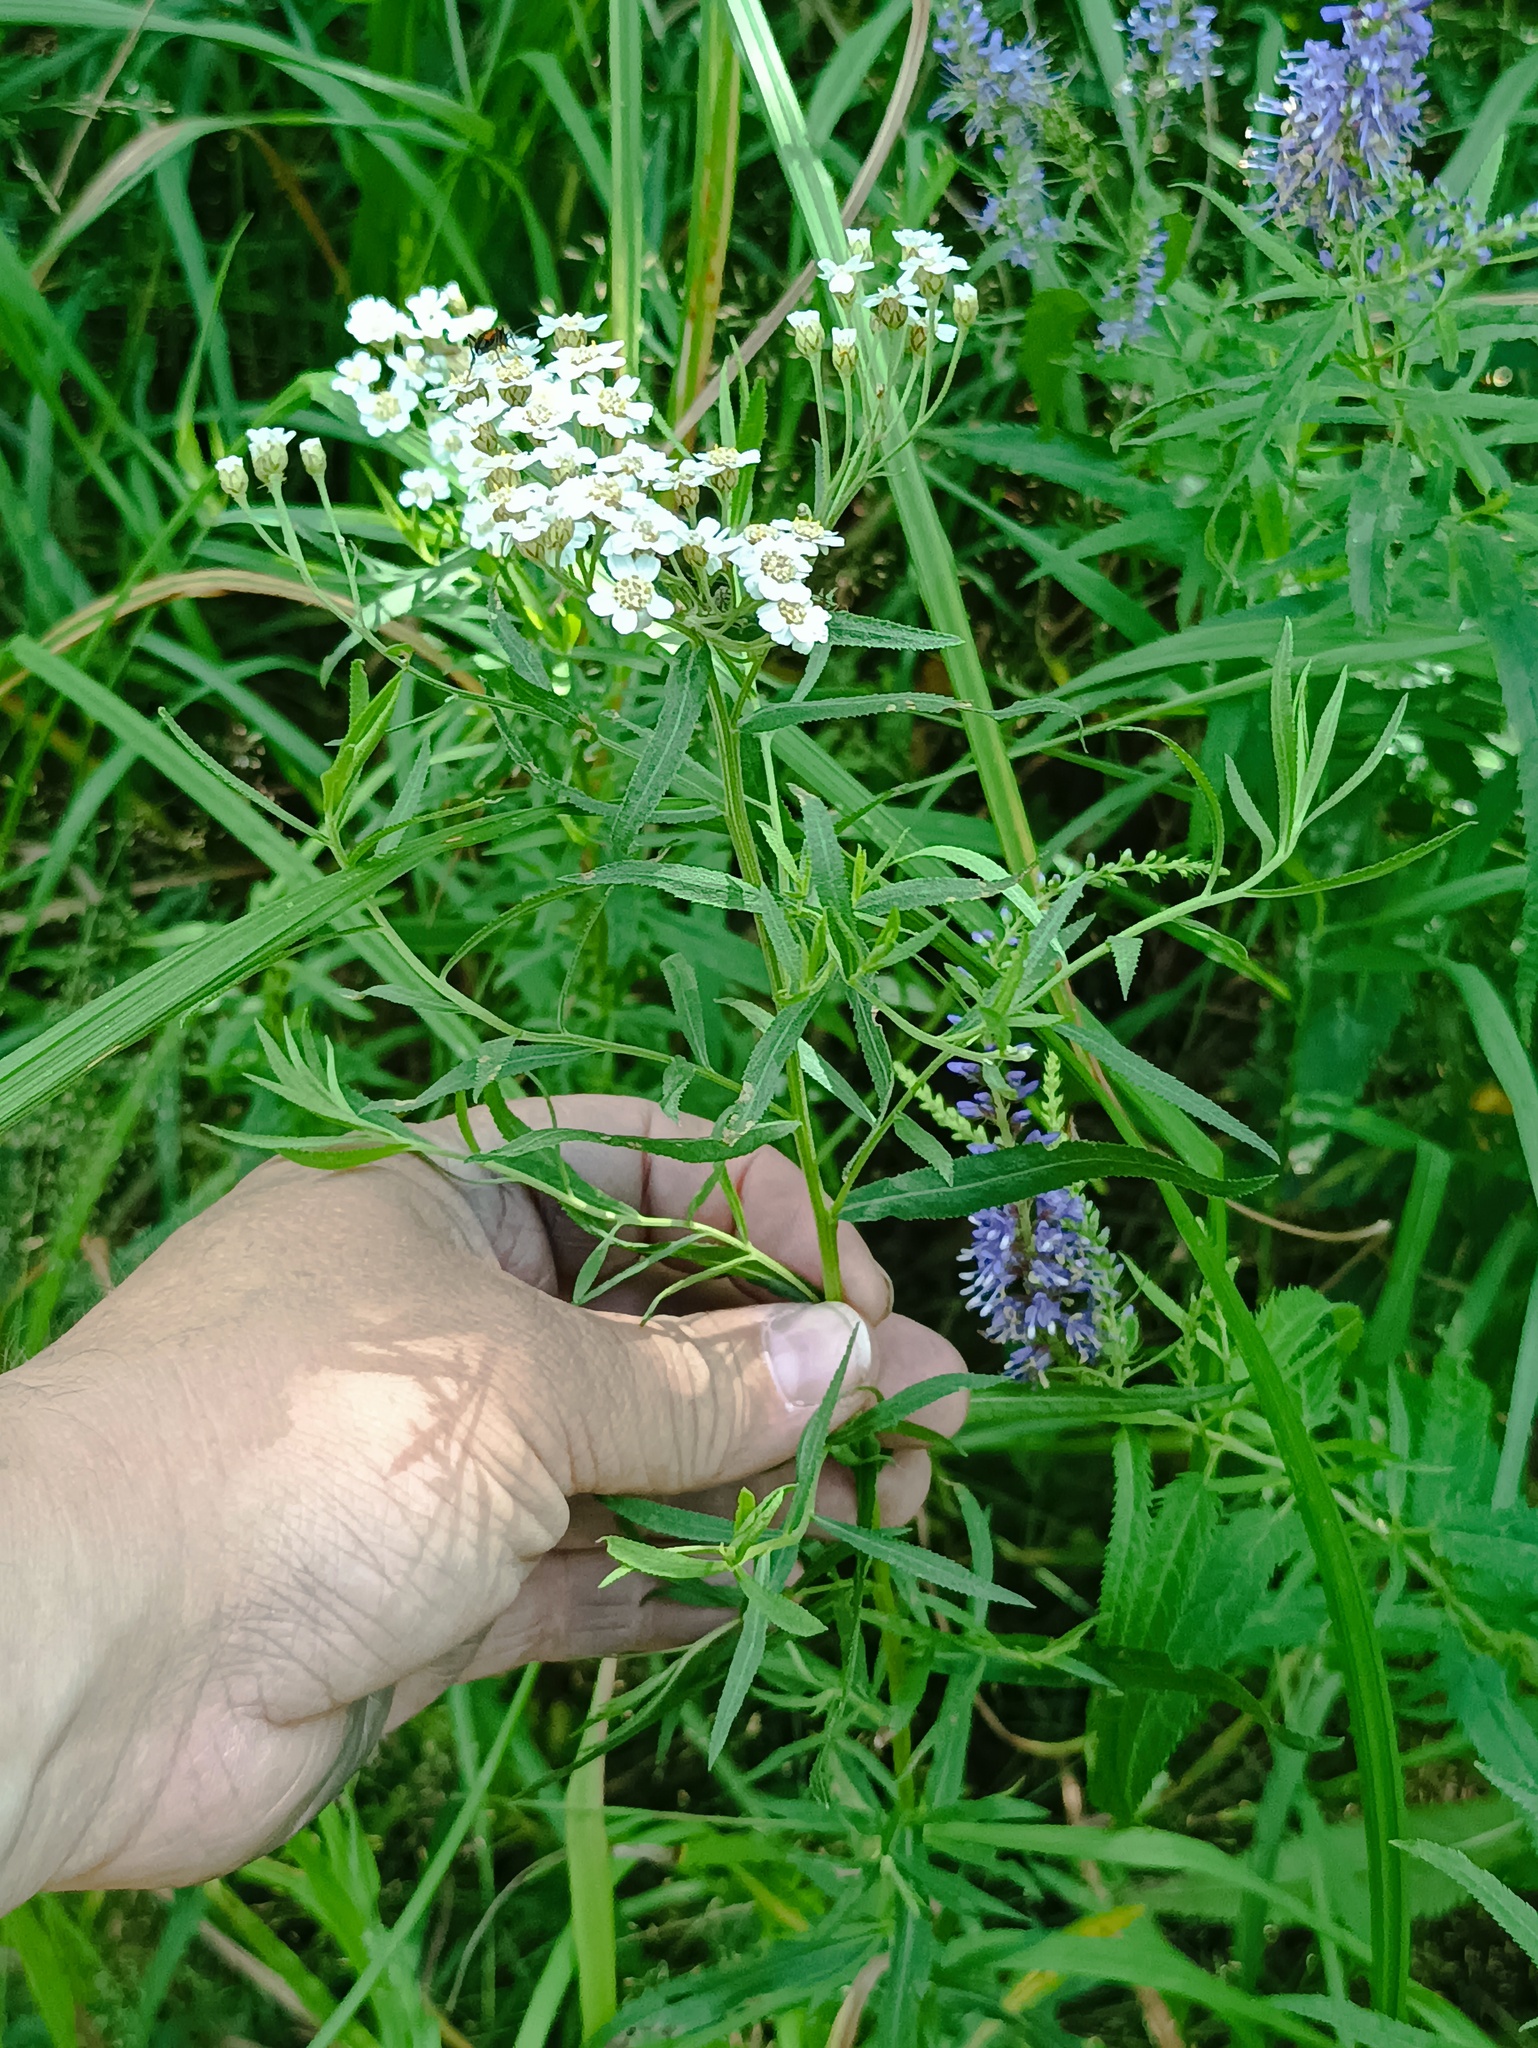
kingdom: Plantae
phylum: Tracheophyta
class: Magnoliopsida
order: Asterales
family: Asteraceae
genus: Achillea
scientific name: Achillea salicifolia
